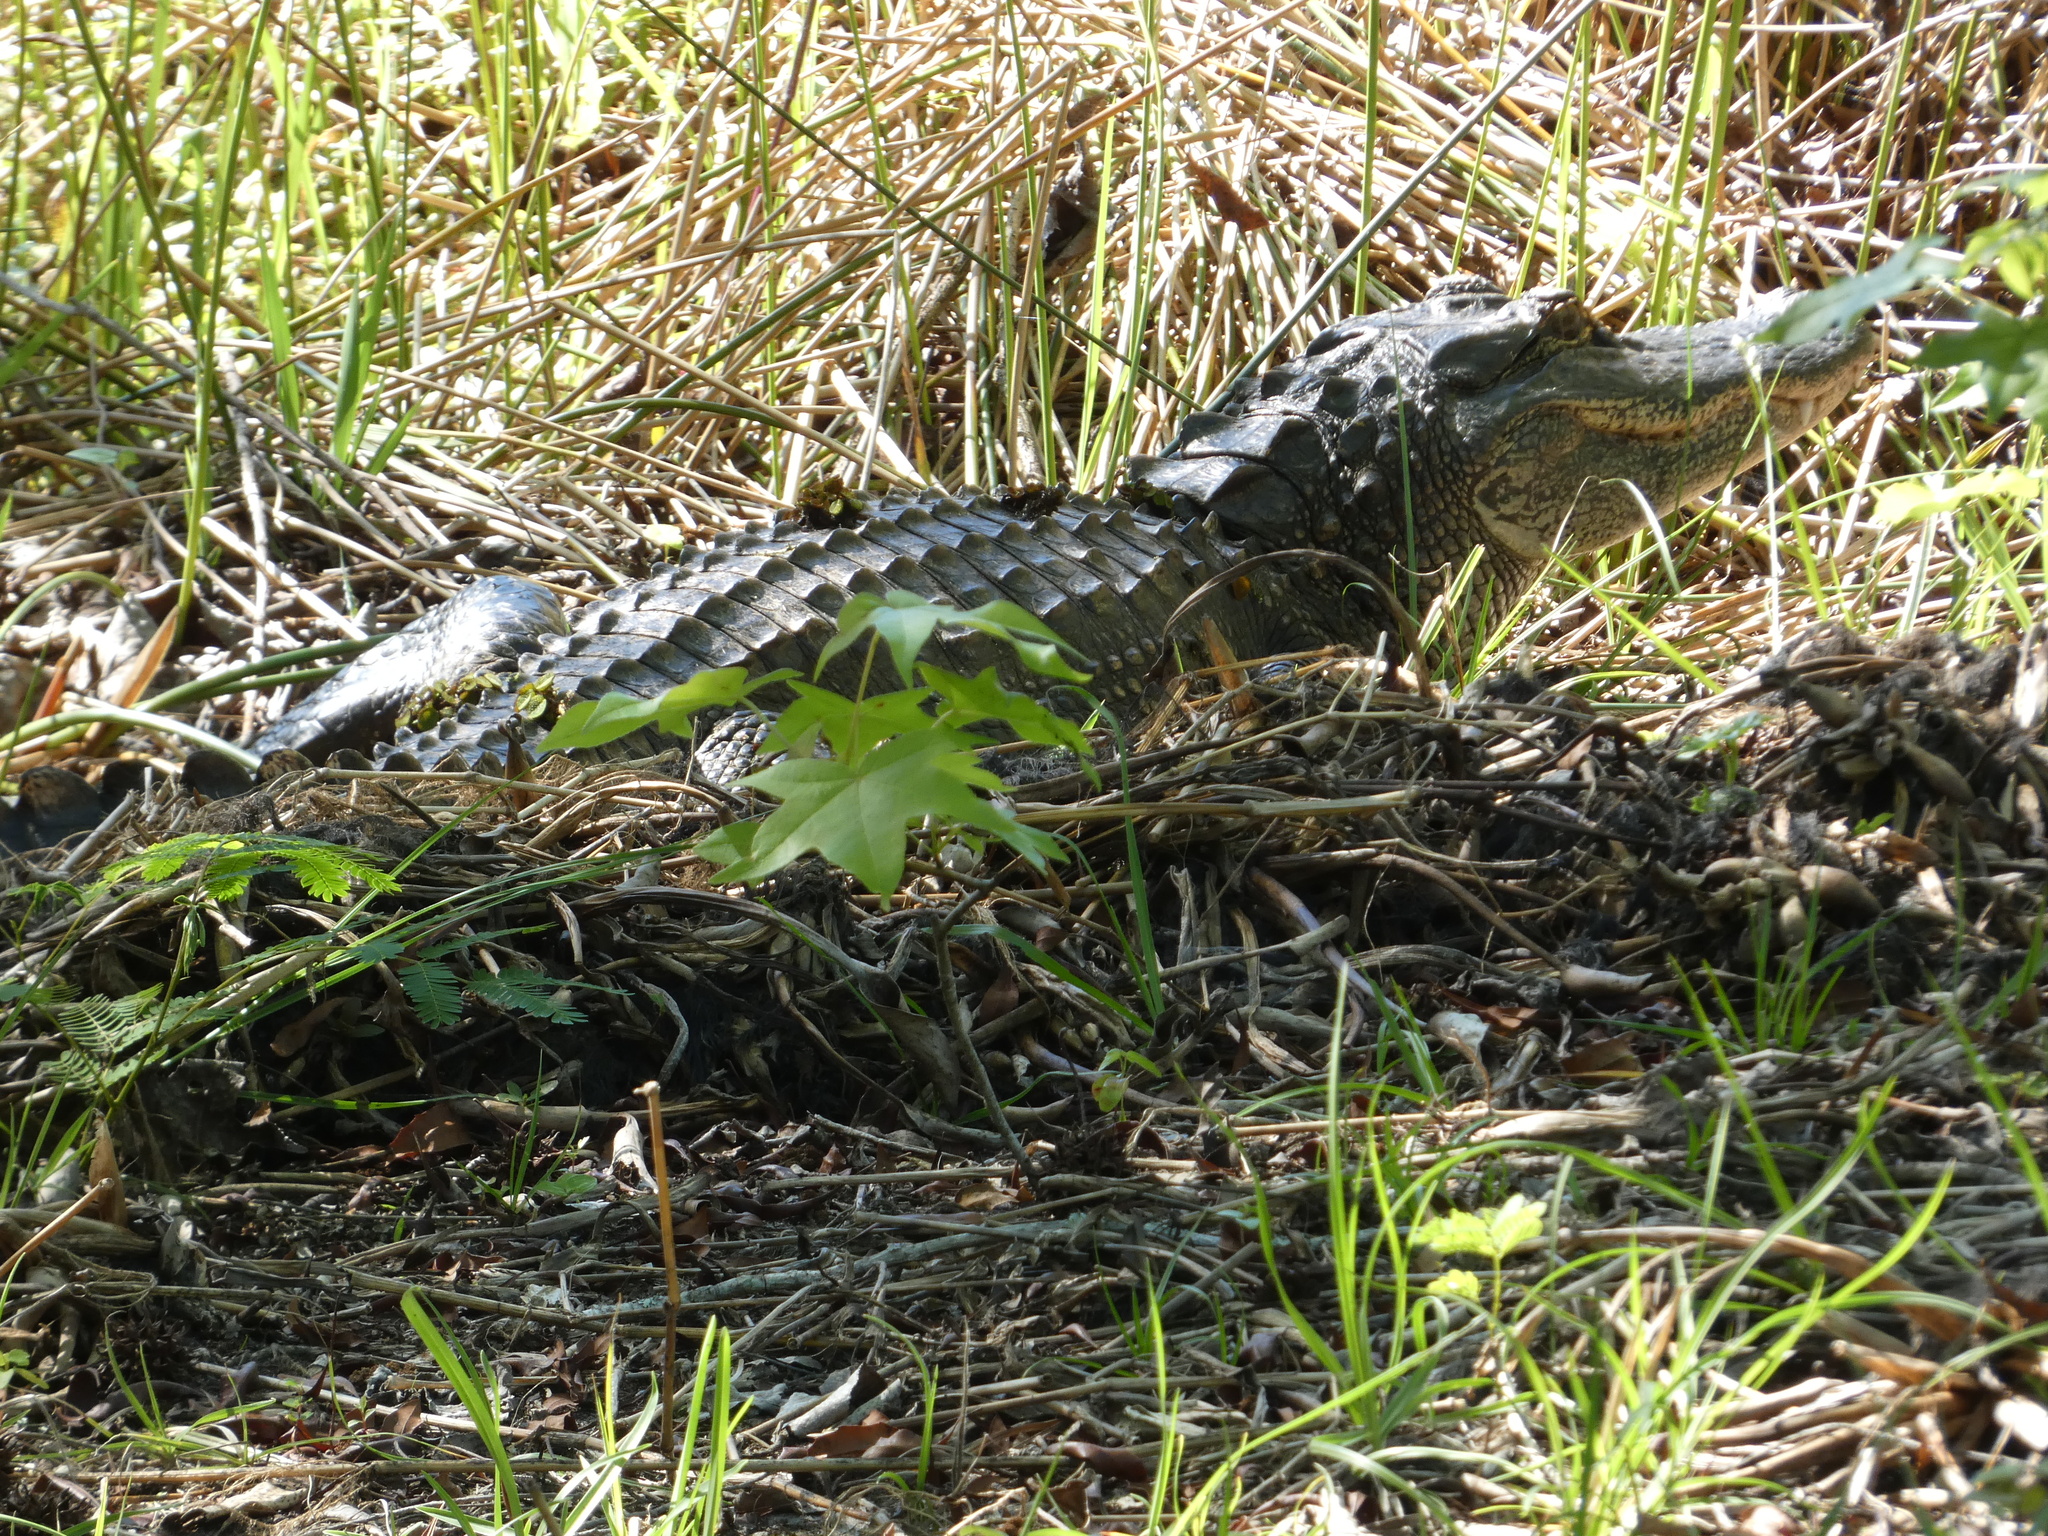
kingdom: Animalia
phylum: Chordata
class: Crocodylia
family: Alligatoridae
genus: Alligator
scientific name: Alligator mississippiensis
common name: American alligator
